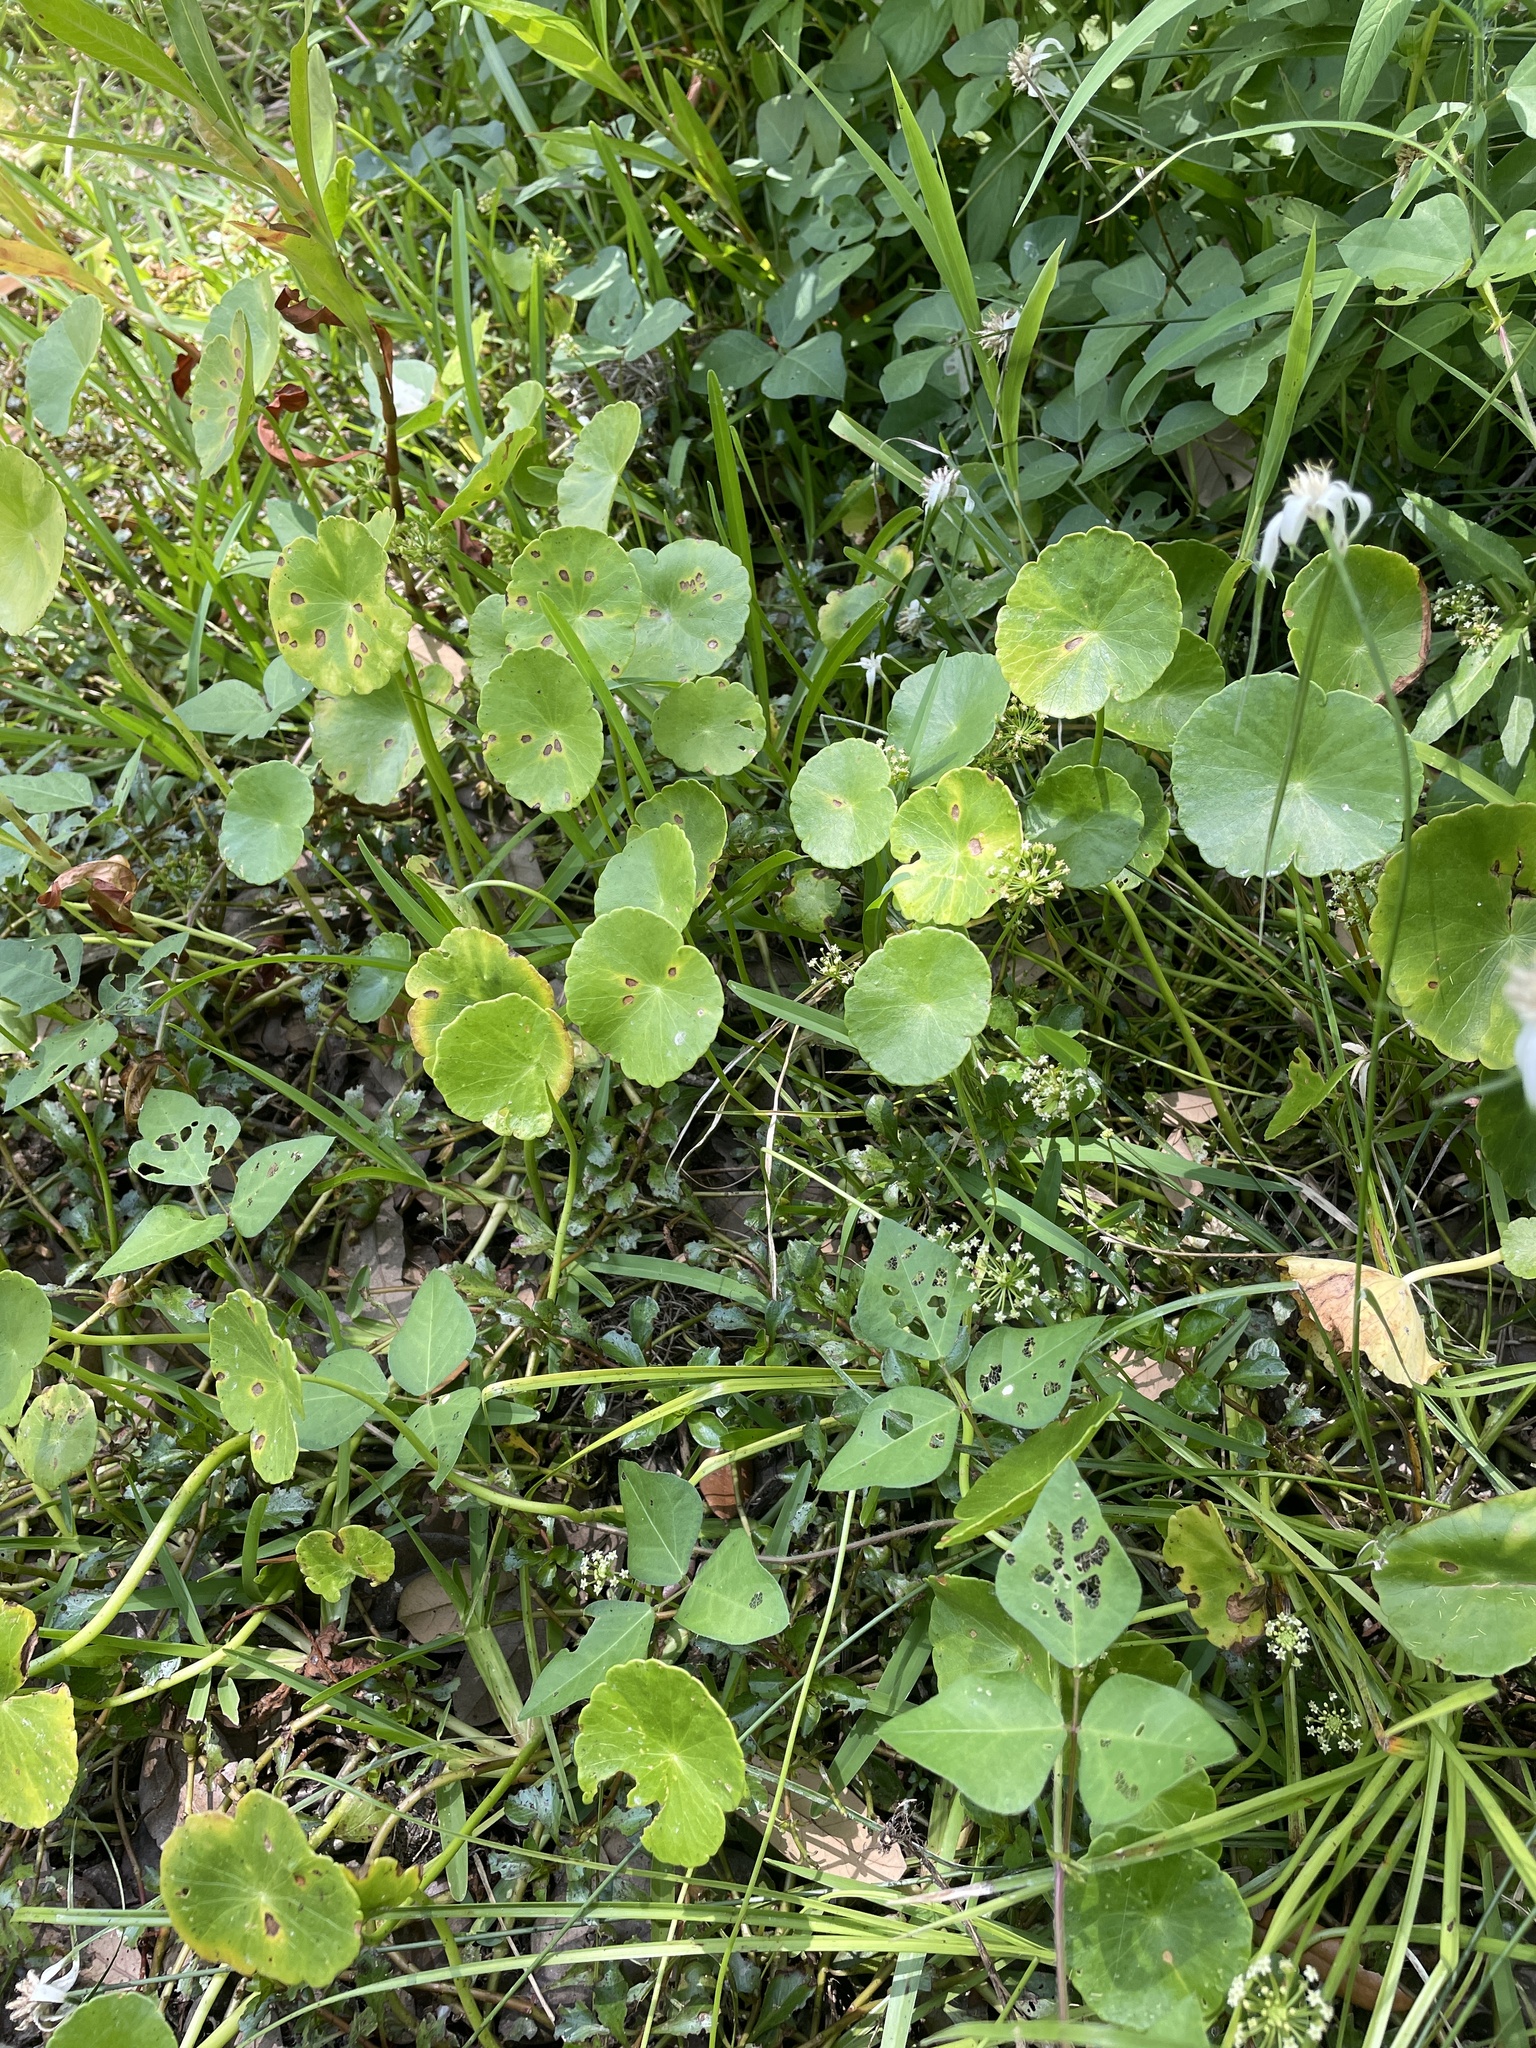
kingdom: Plantae
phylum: Tracheophyta
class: Magnoliopsida
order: Apiales
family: Araliaceae
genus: Hydrocotyle
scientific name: Hydrocotyle umbellata
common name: Water pennywort
